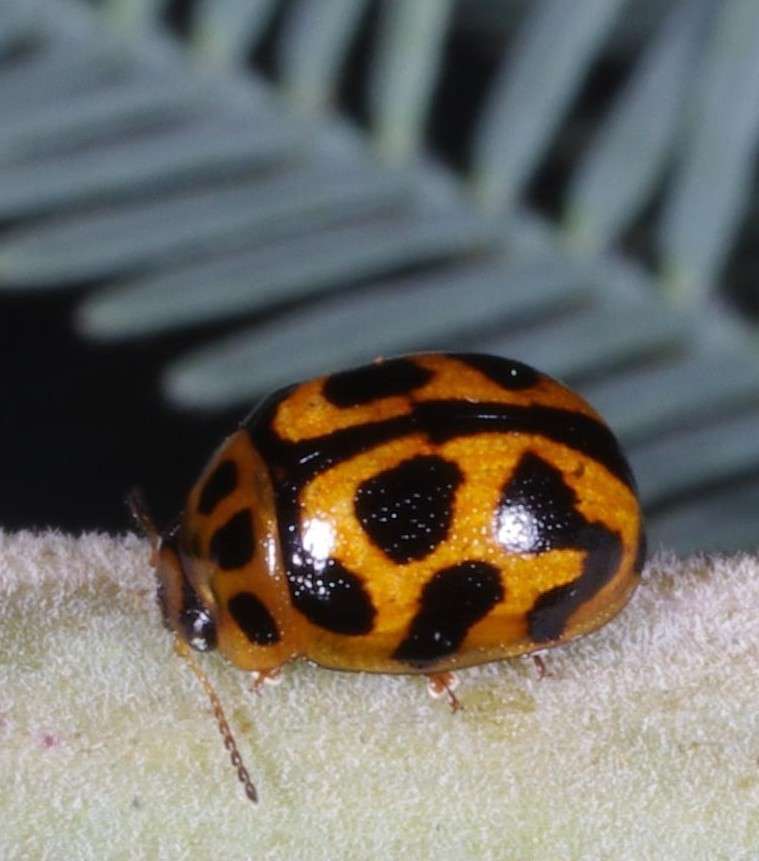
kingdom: Animalia
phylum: Arthropoda
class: Insecta
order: Coleoptera
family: Chrysomelidae
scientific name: Chrysomelidae
